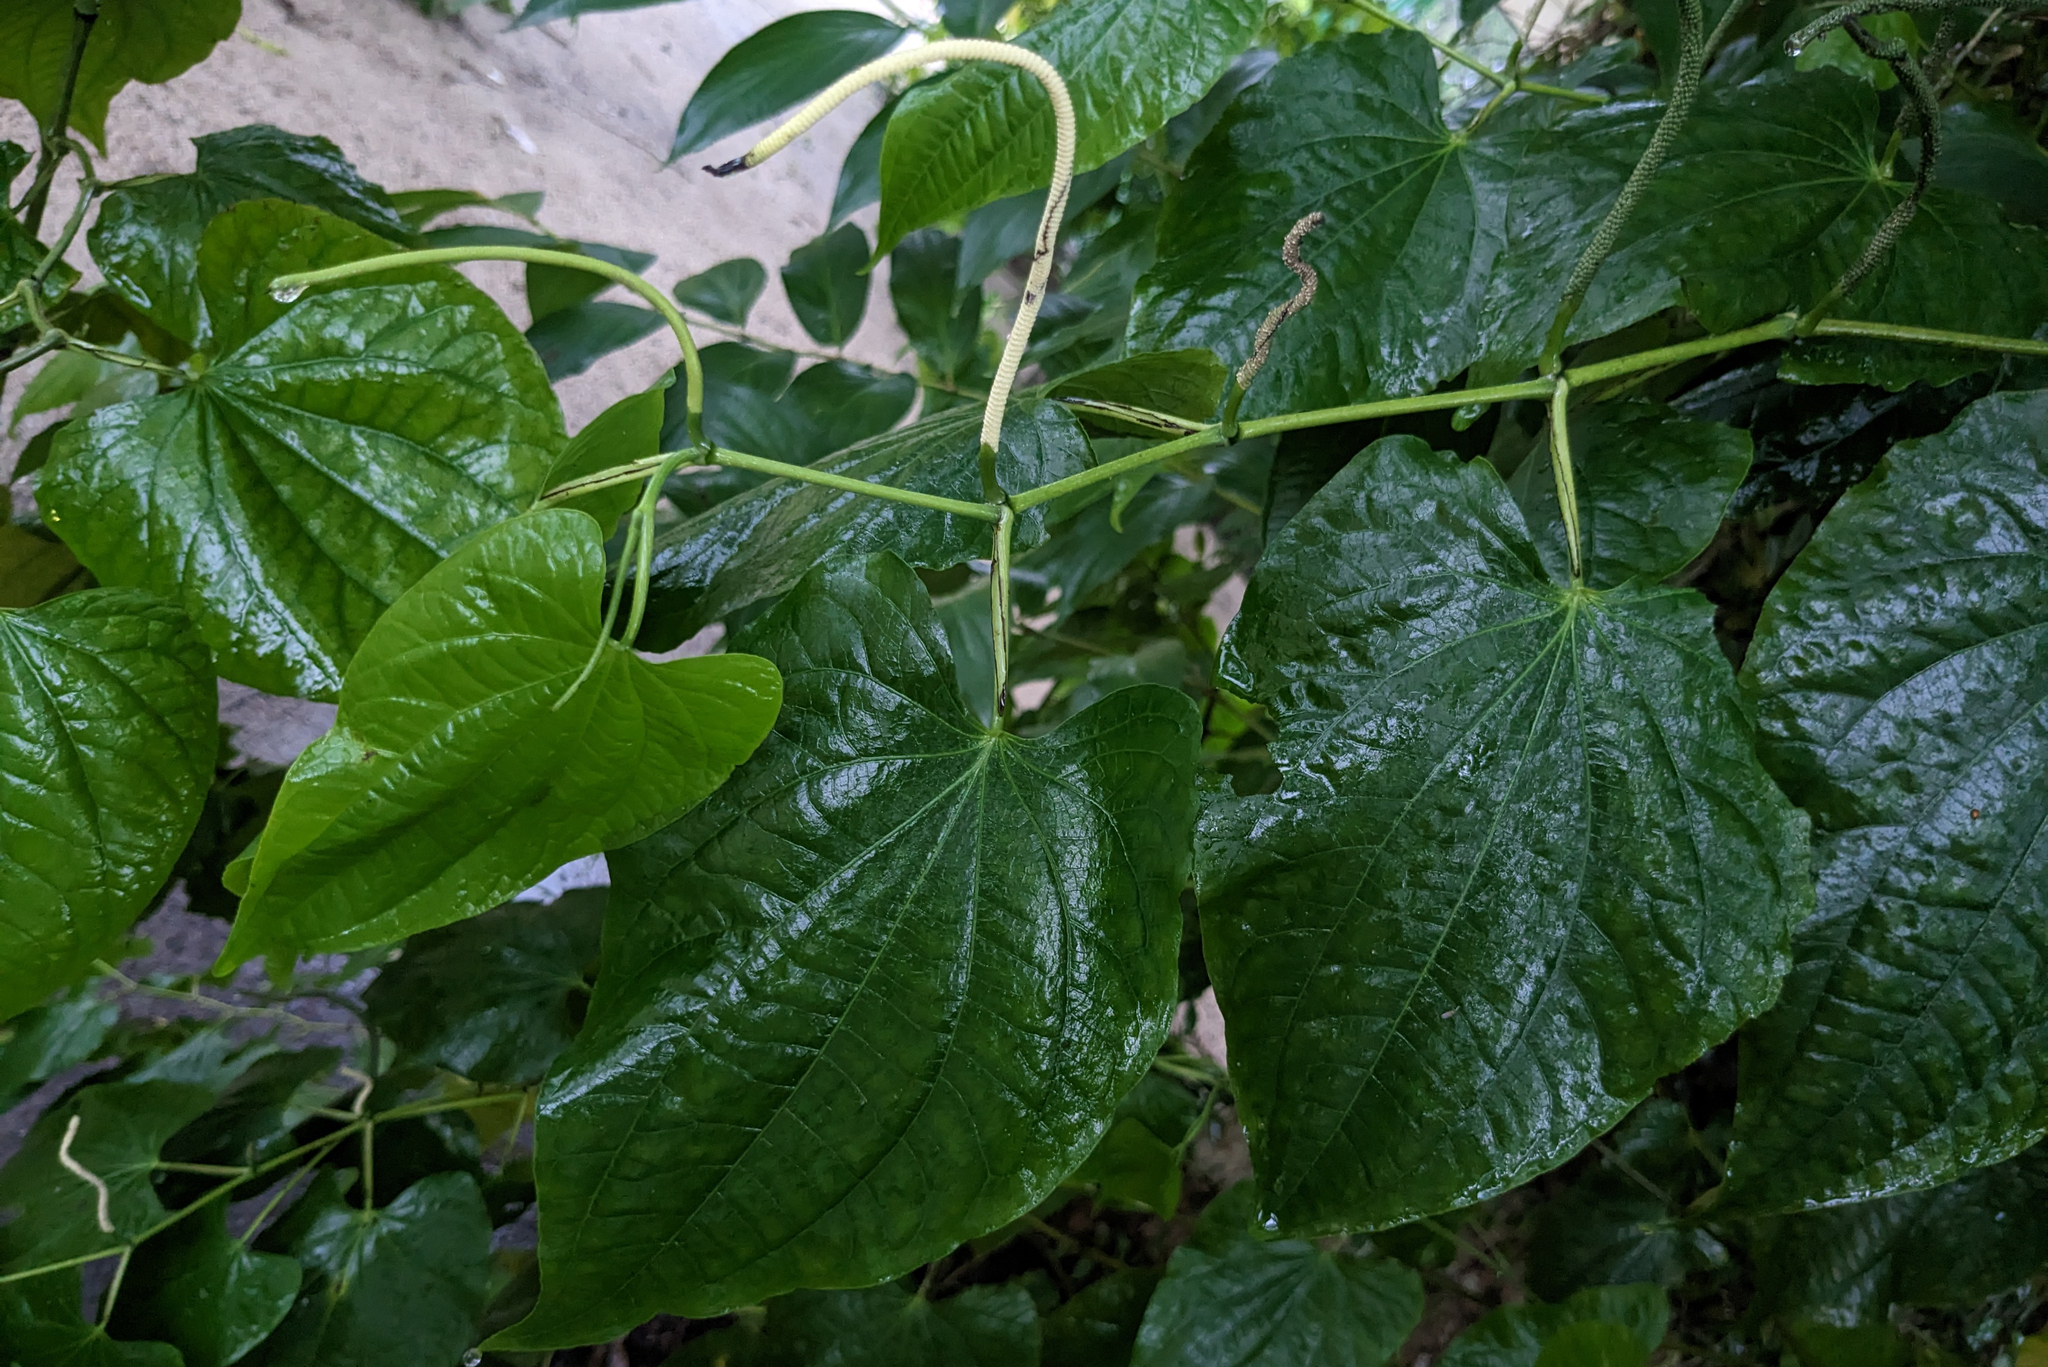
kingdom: Plantae
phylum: Tracheophyta
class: Magnoliopsida
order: Piperales
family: Piperaceae
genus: Piper
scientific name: Piper marginatum
